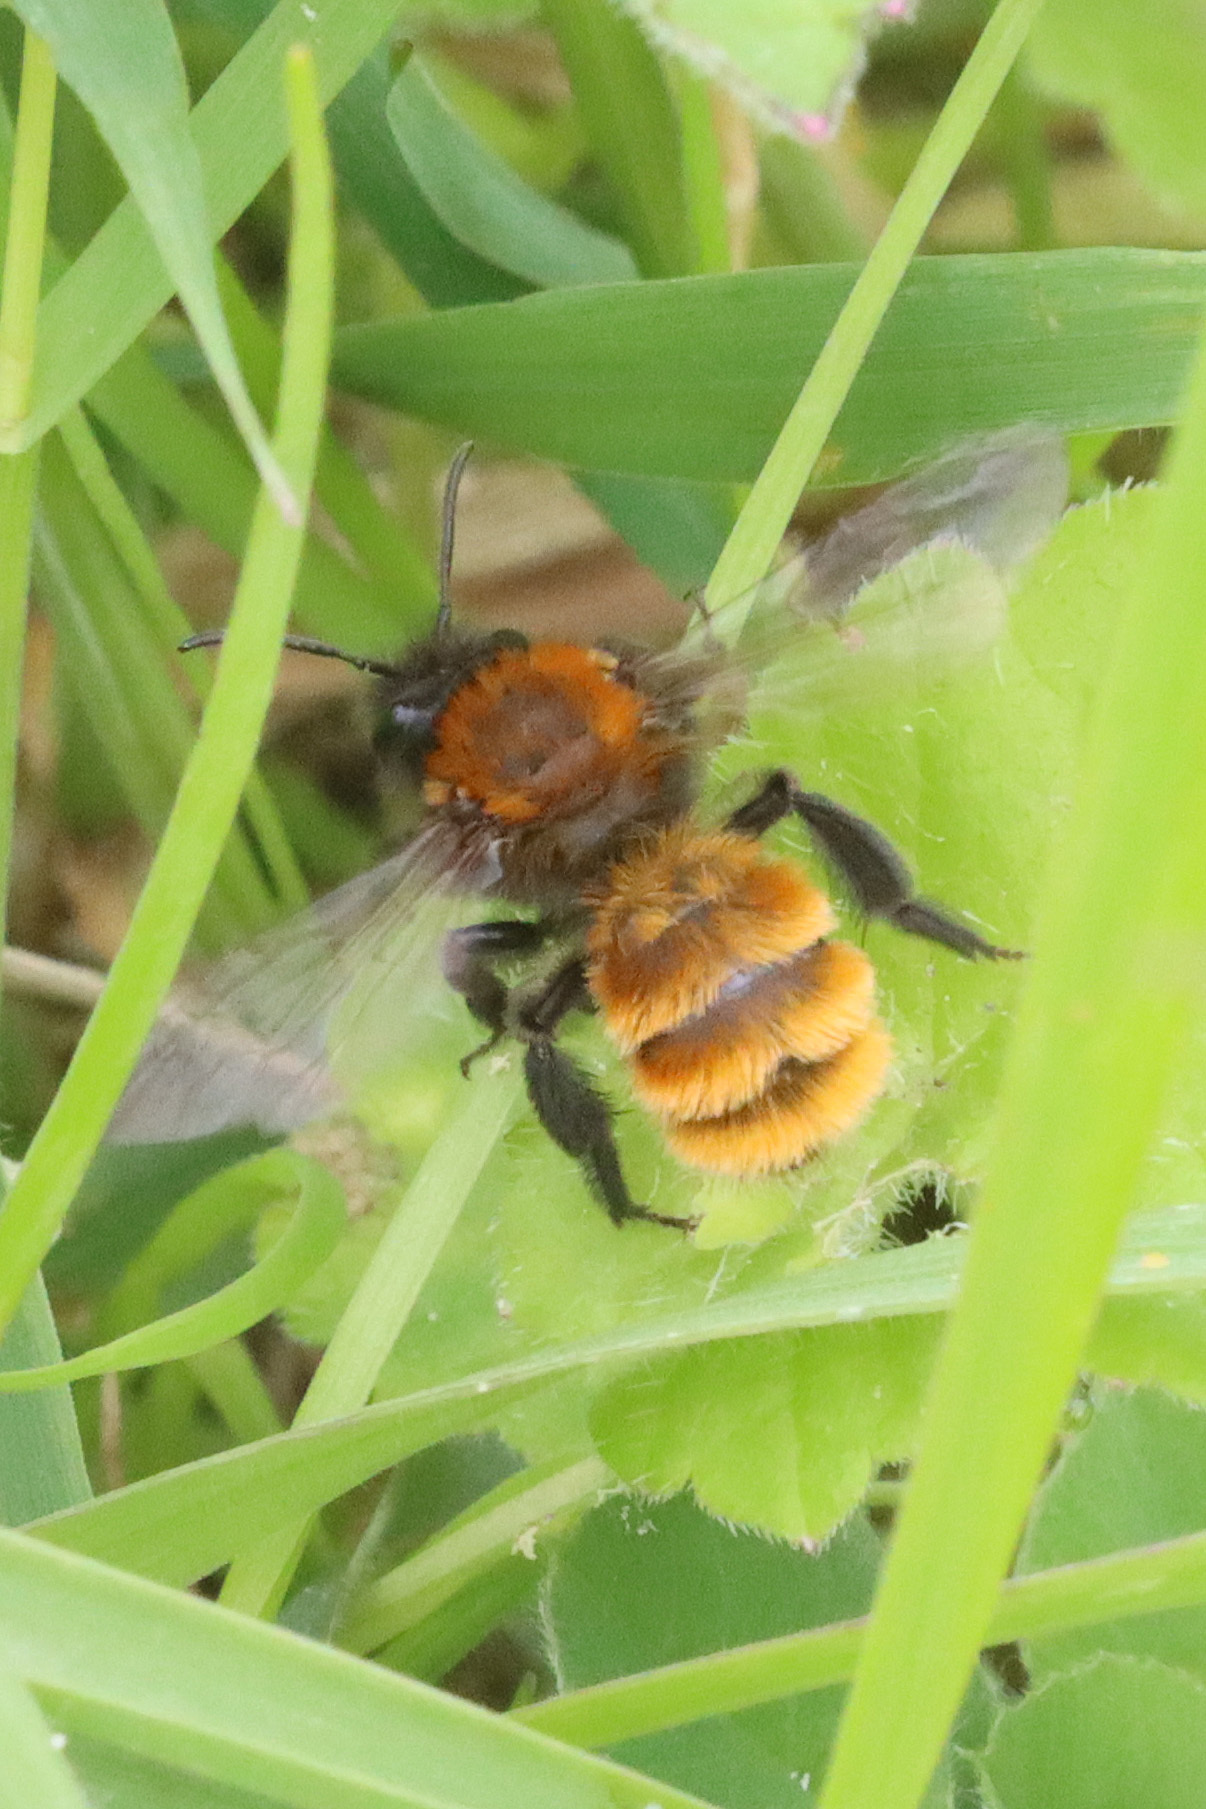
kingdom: Animalia
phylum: Arthropoda
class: Insecta
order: Hymenoptera
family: Andrenidae
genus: Andrena
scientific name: Andrena fulva
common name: Tawny mining bee
